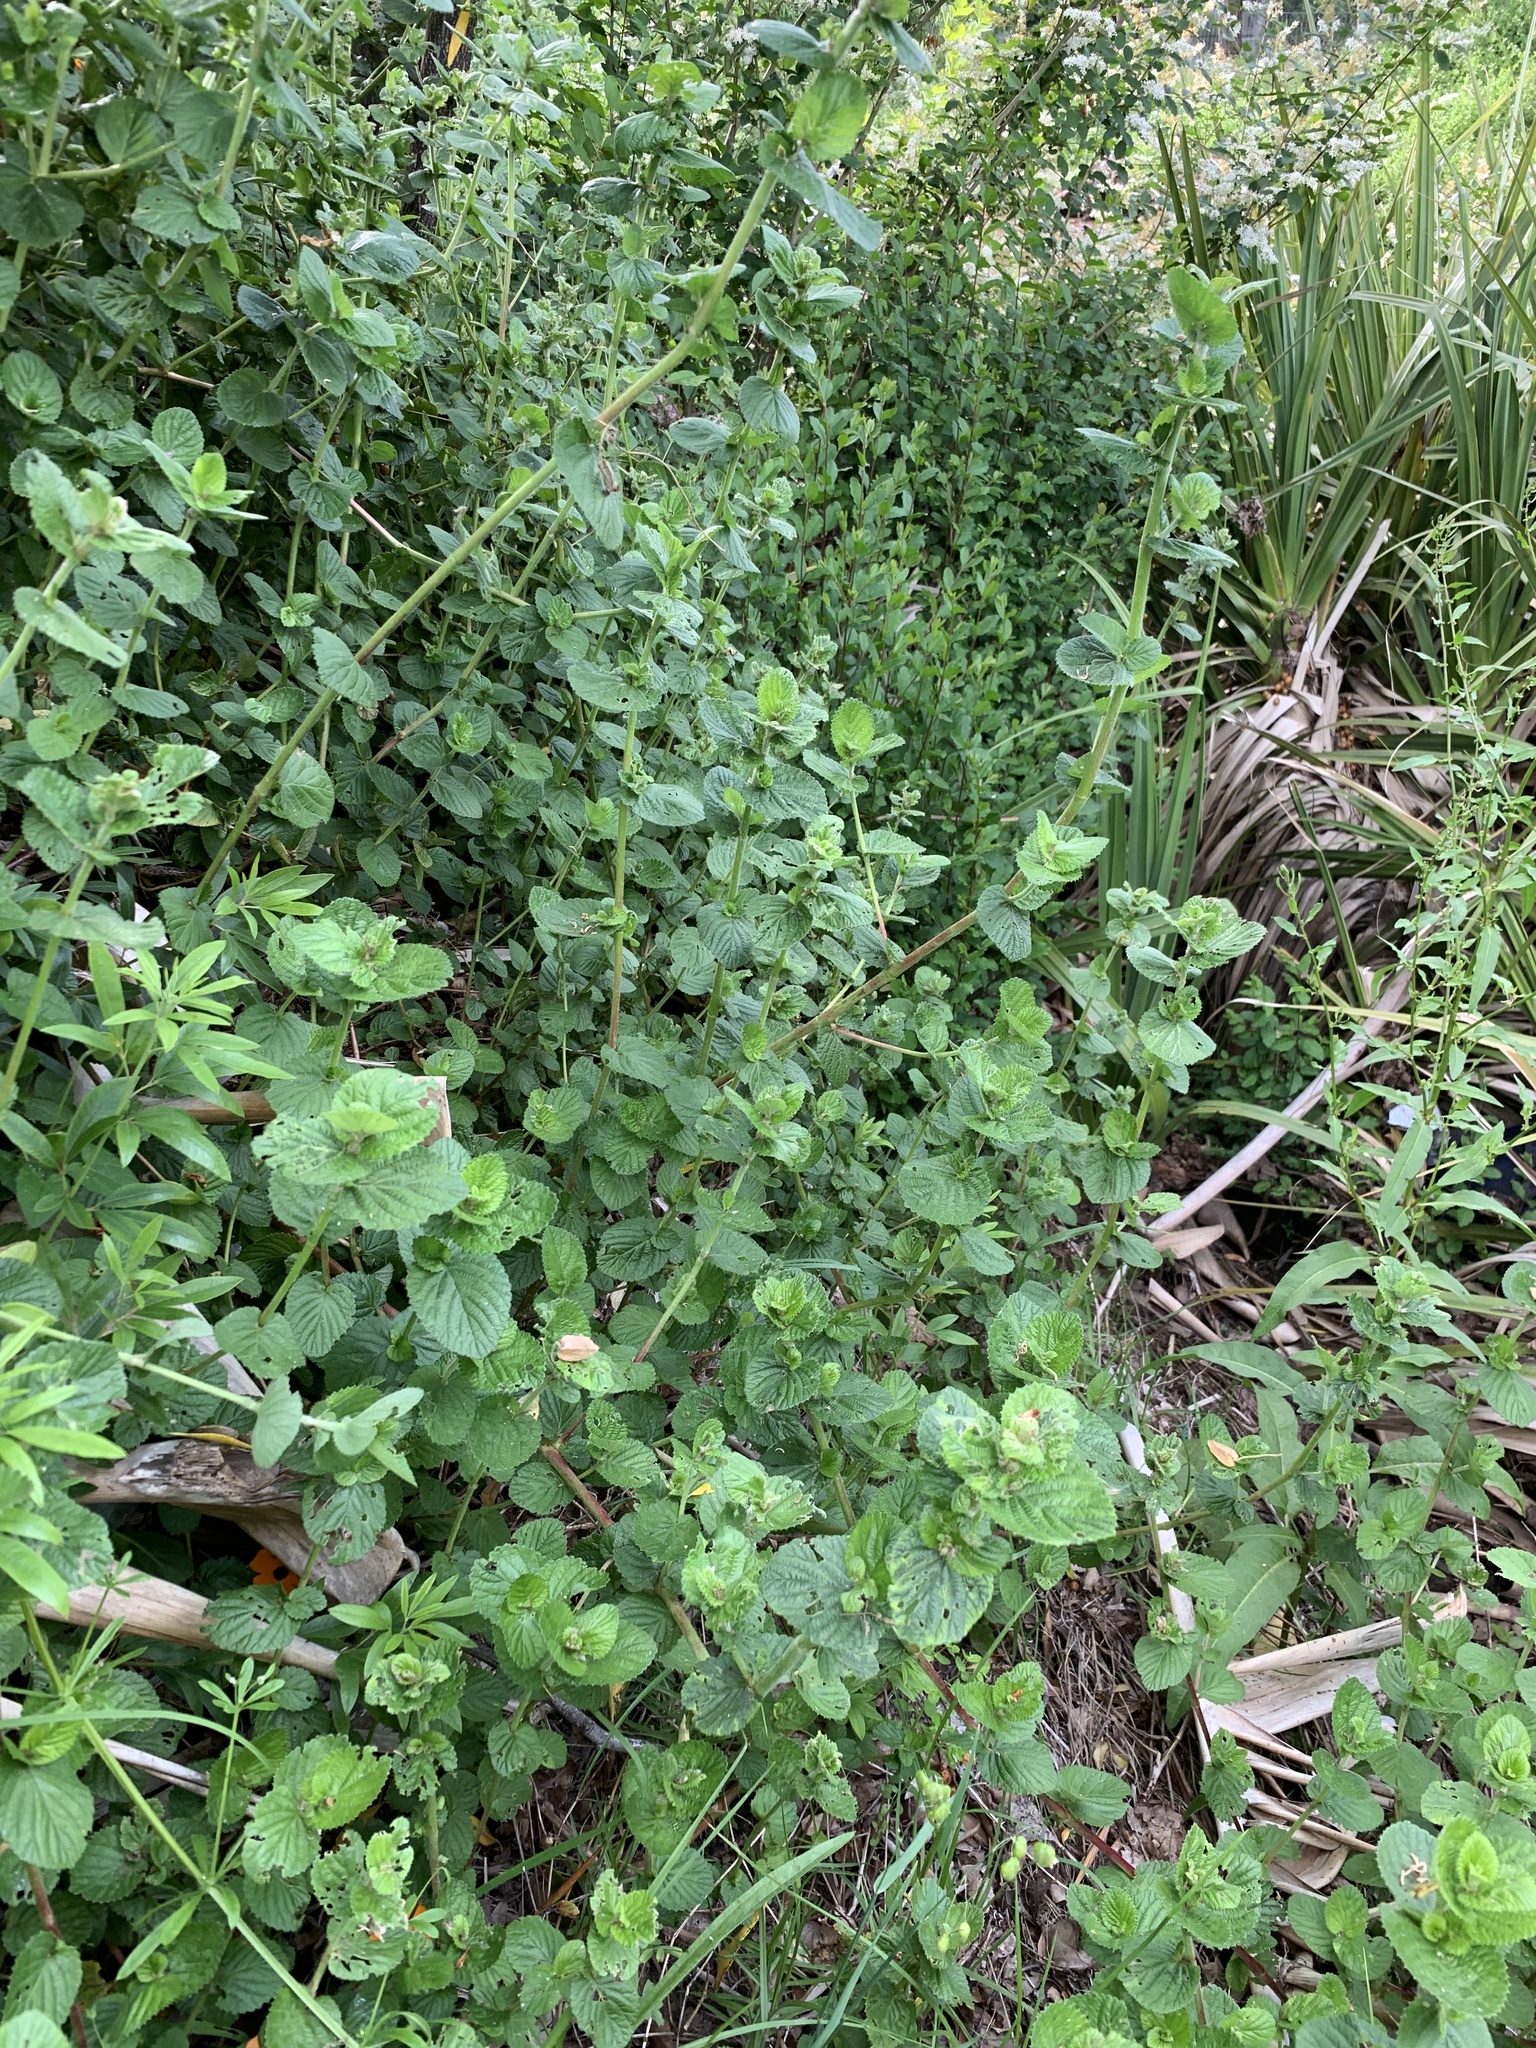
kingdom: Plantae
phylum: Tracheophyta
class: Magnoliopsida
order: Rosales
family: Rosaceae
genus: Cliffortia
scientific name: Cliffortia odorata
